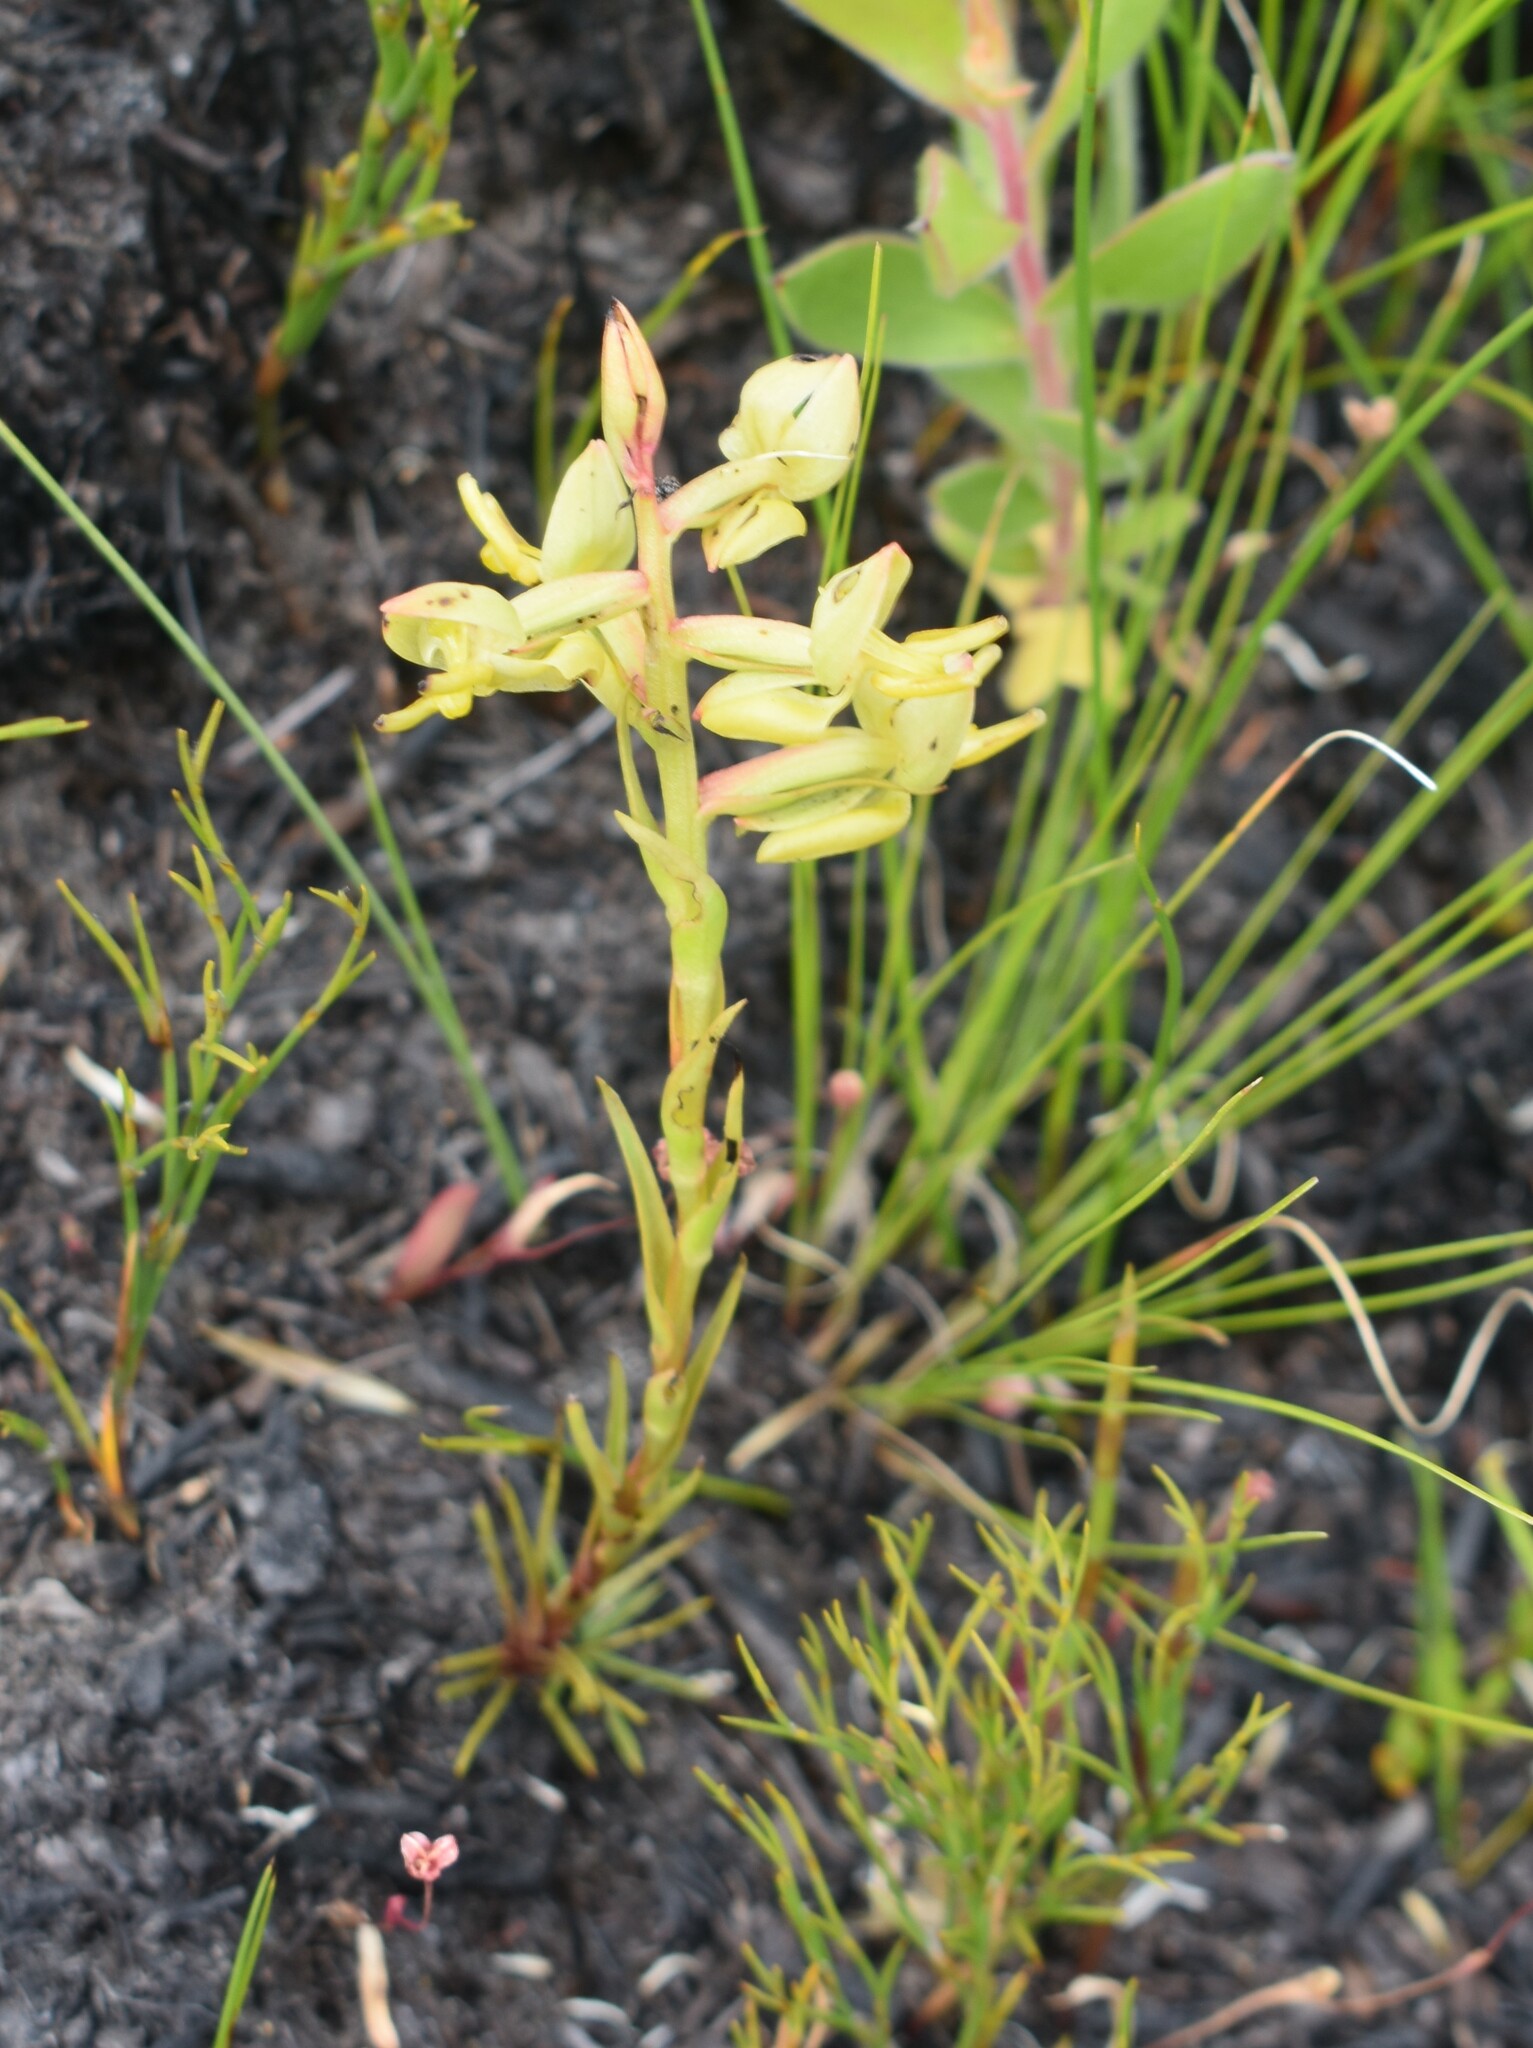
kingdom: Plantae
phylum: Tracheophyta
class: Liliopsida
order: Asparagales
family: Orchidaceae
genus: Ceratandra
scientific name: Ceratandra atrata
